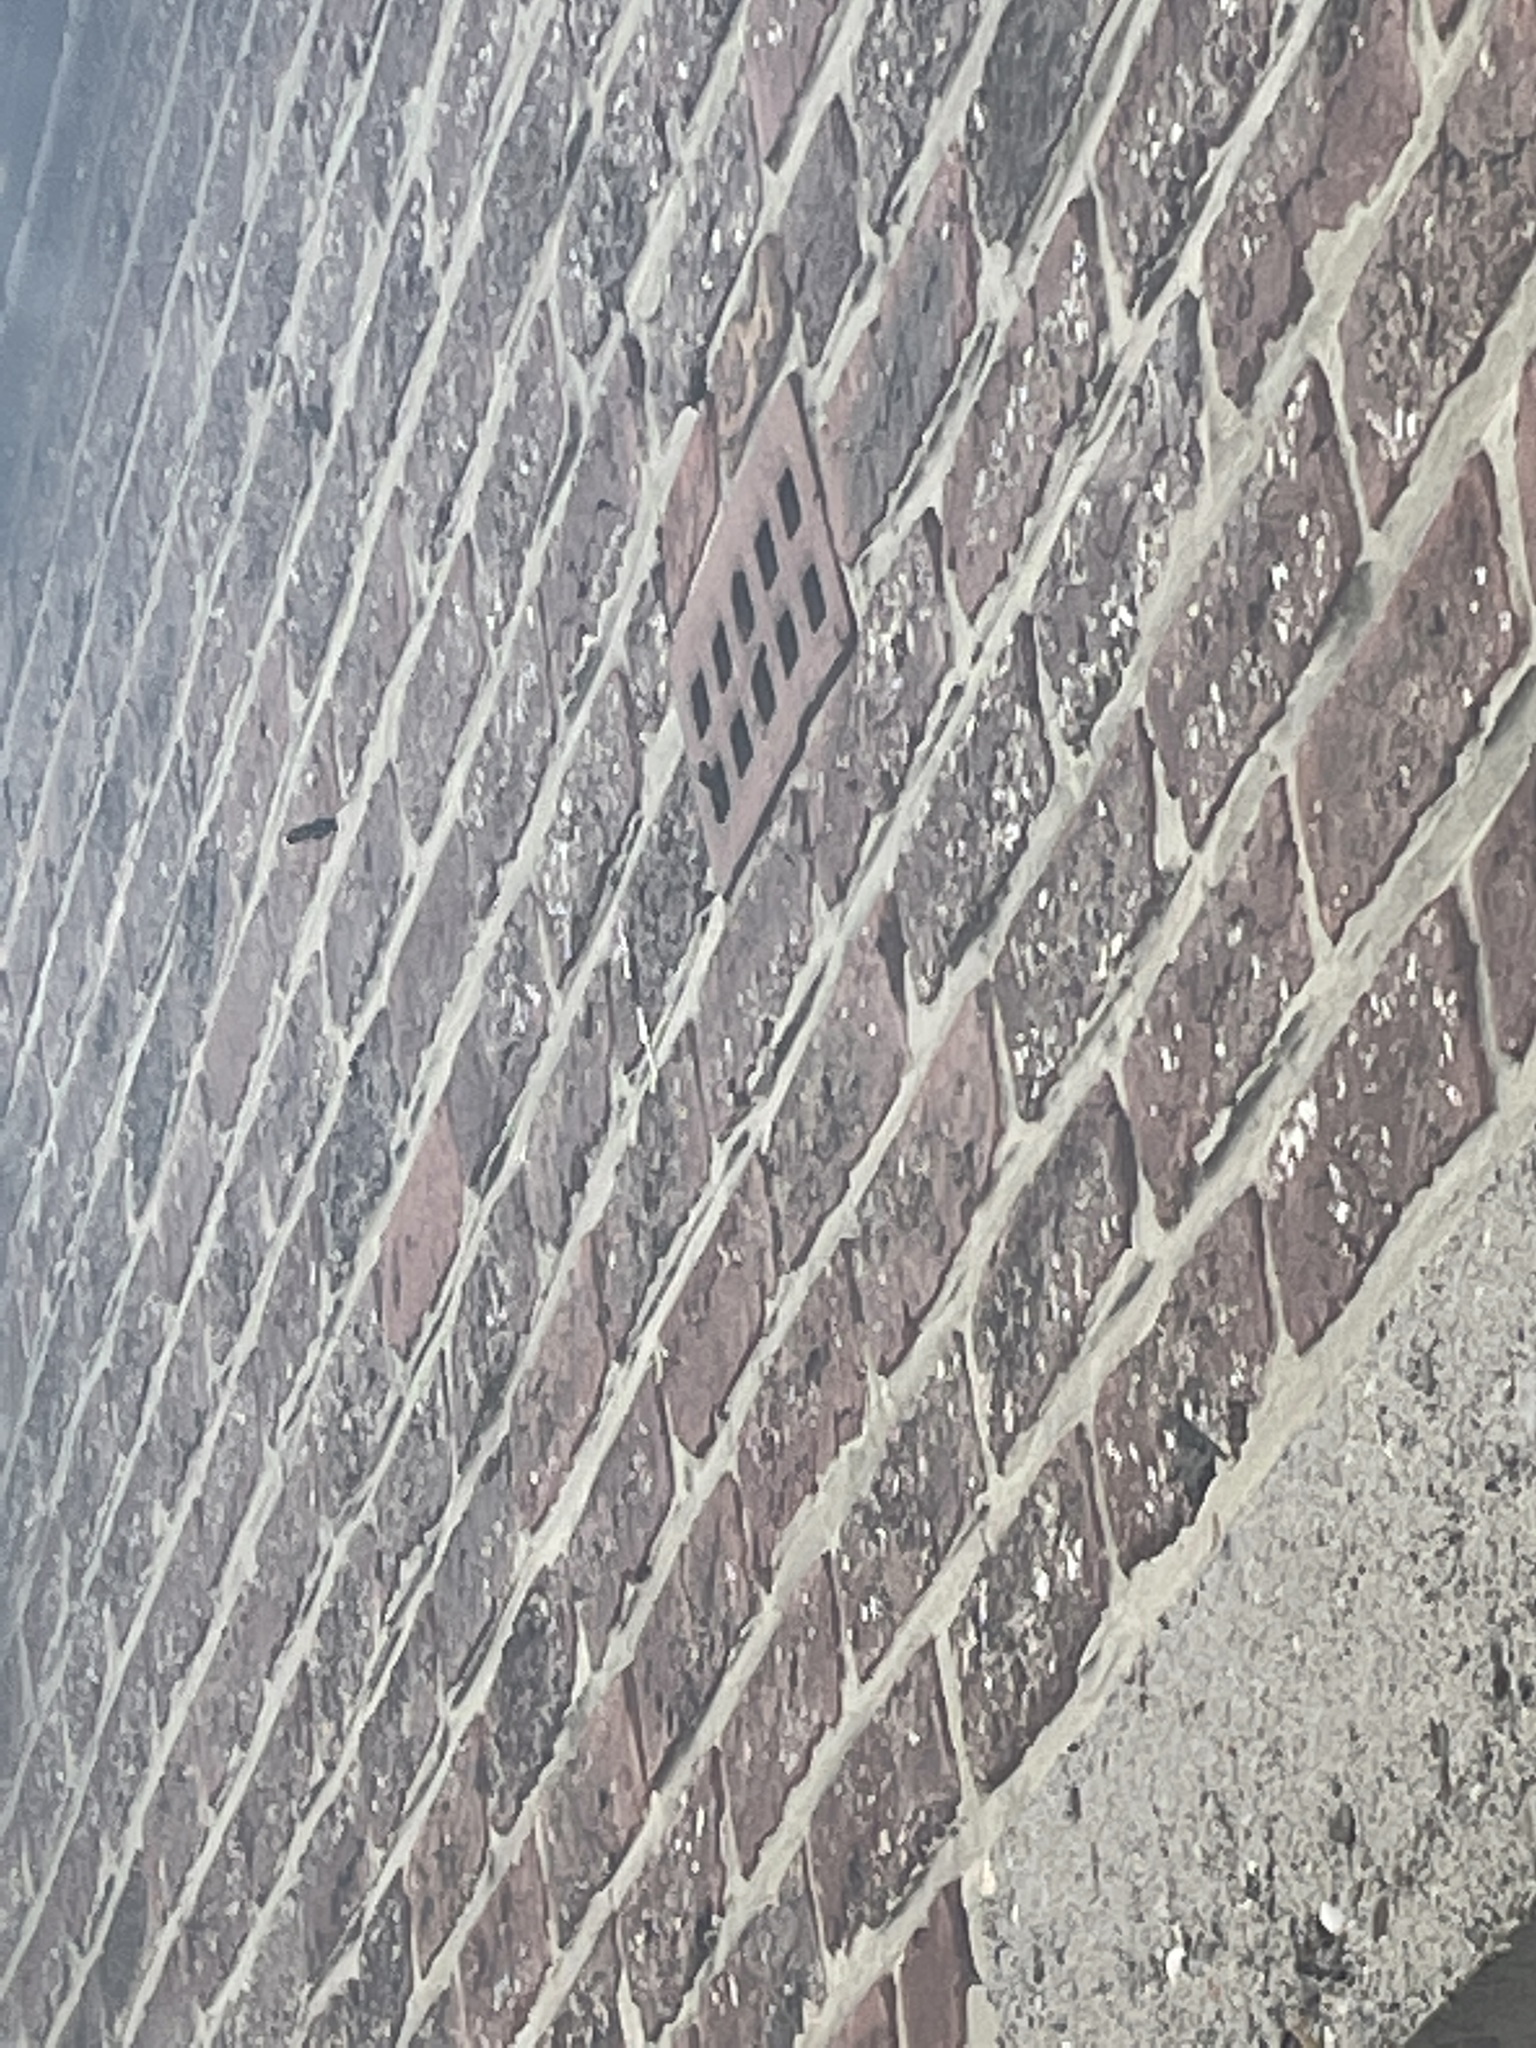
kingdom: Animalia
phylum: Arthropoda
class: Insecta
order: Hymenoptera
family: Vespidae
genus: Vespa
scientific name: Vespa velutina
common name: Asian hornet
